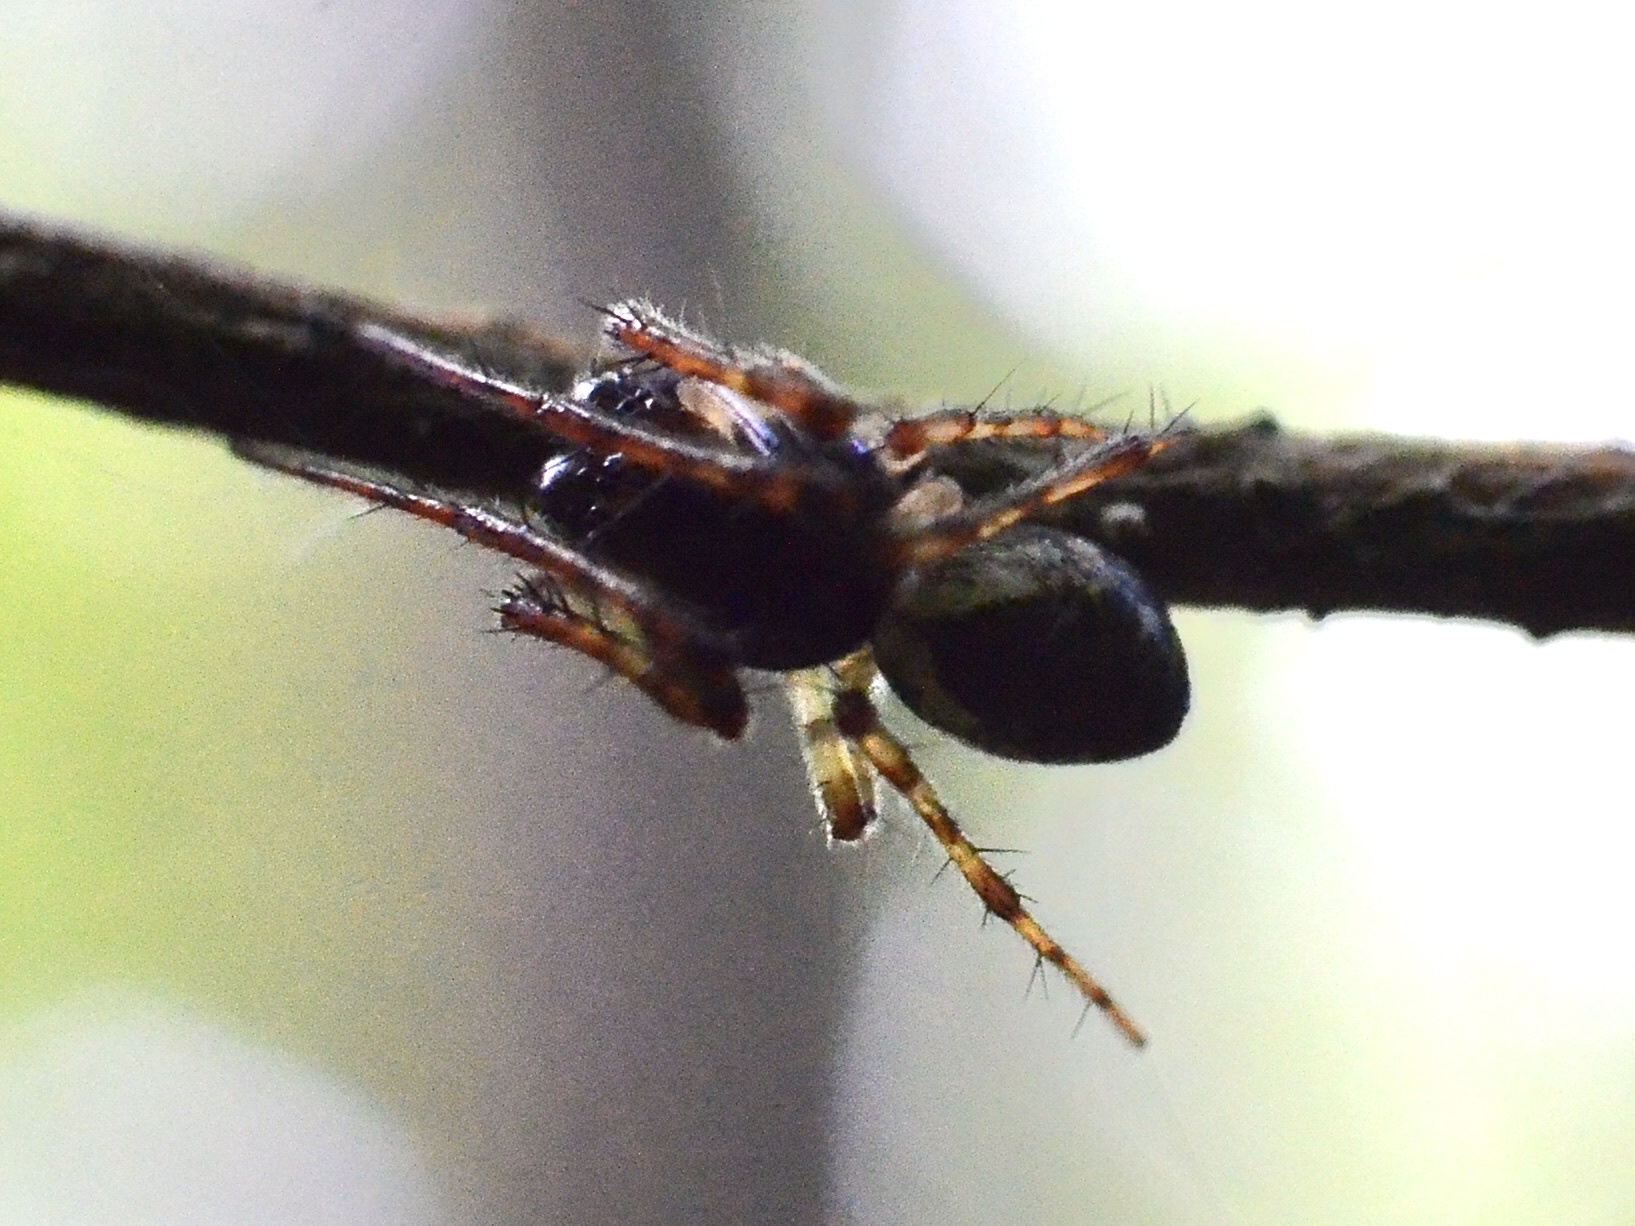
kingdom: Animalia
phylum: Arthropoda
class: Arachnida
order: Araneae
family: Araneidae
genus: Cyclosa
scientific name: Cyclosa
